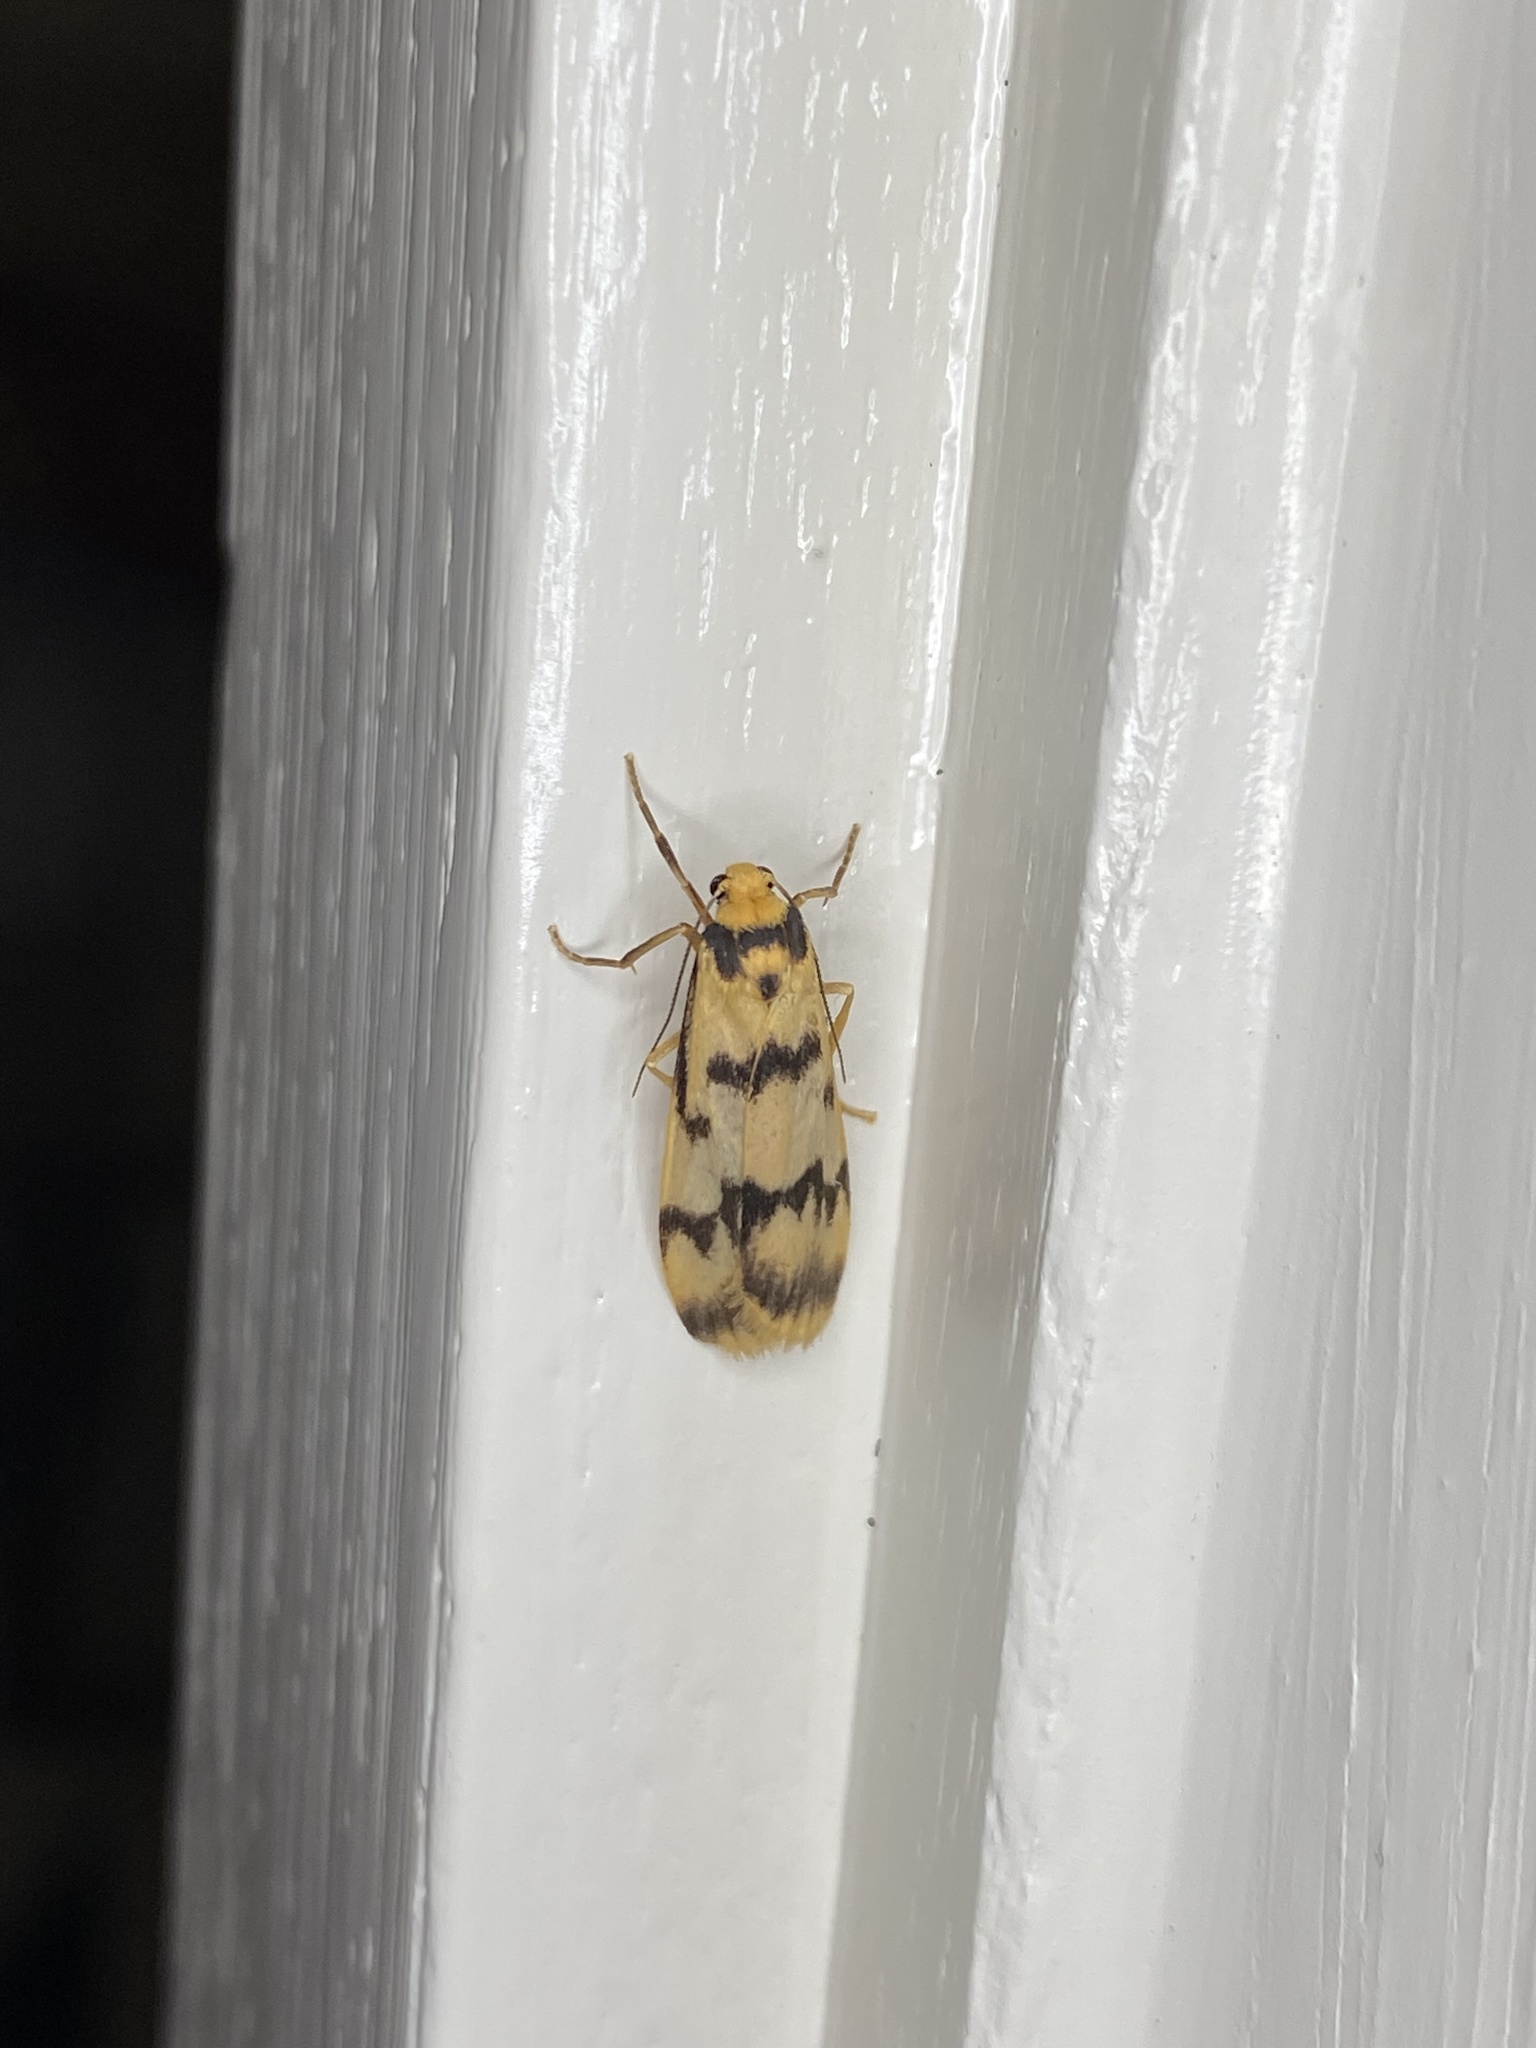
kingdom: Animalia
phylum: Arthropoda
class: Insecta
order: Lepidoptera
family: Erebidae
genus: Tigrioides
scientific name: Tigrioides alterna
